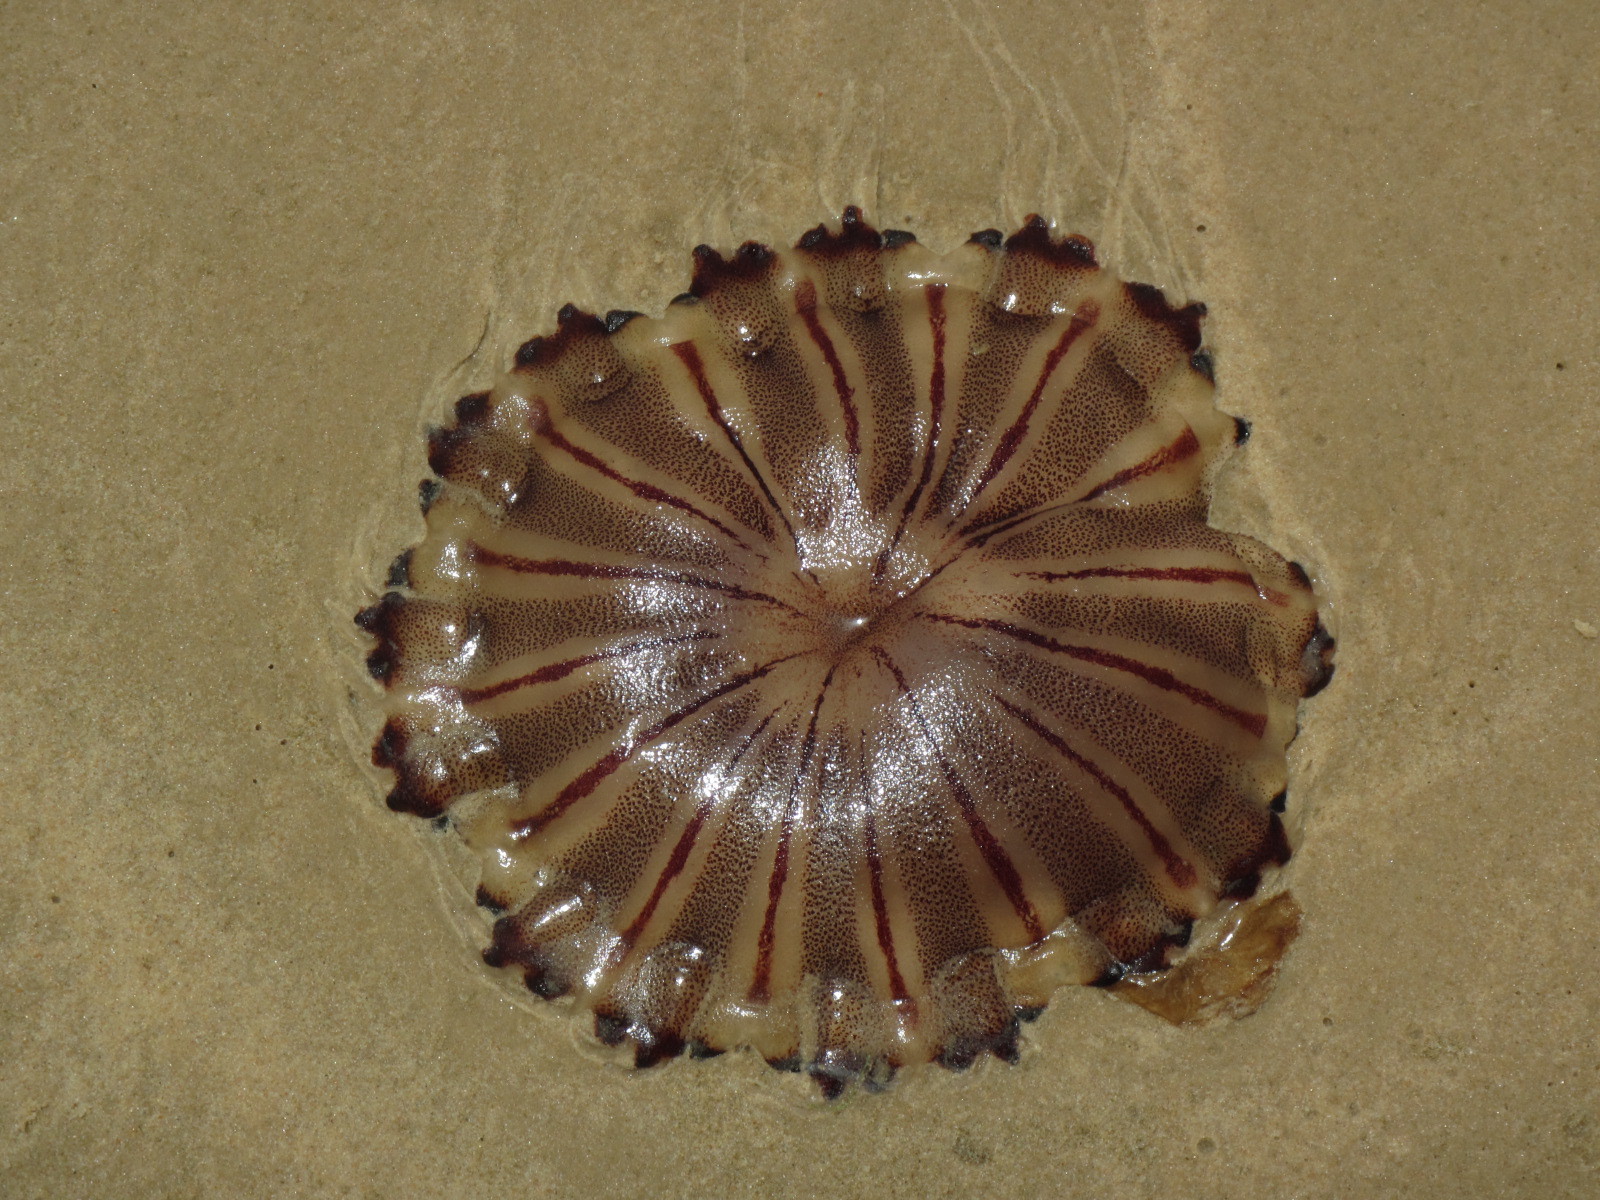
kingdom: Animalia
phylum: Cnidaria
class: Scyphozoa
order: Semaeostomeae
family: Pelagiidae
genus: Chrysaora
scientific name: Chrysaora africana
